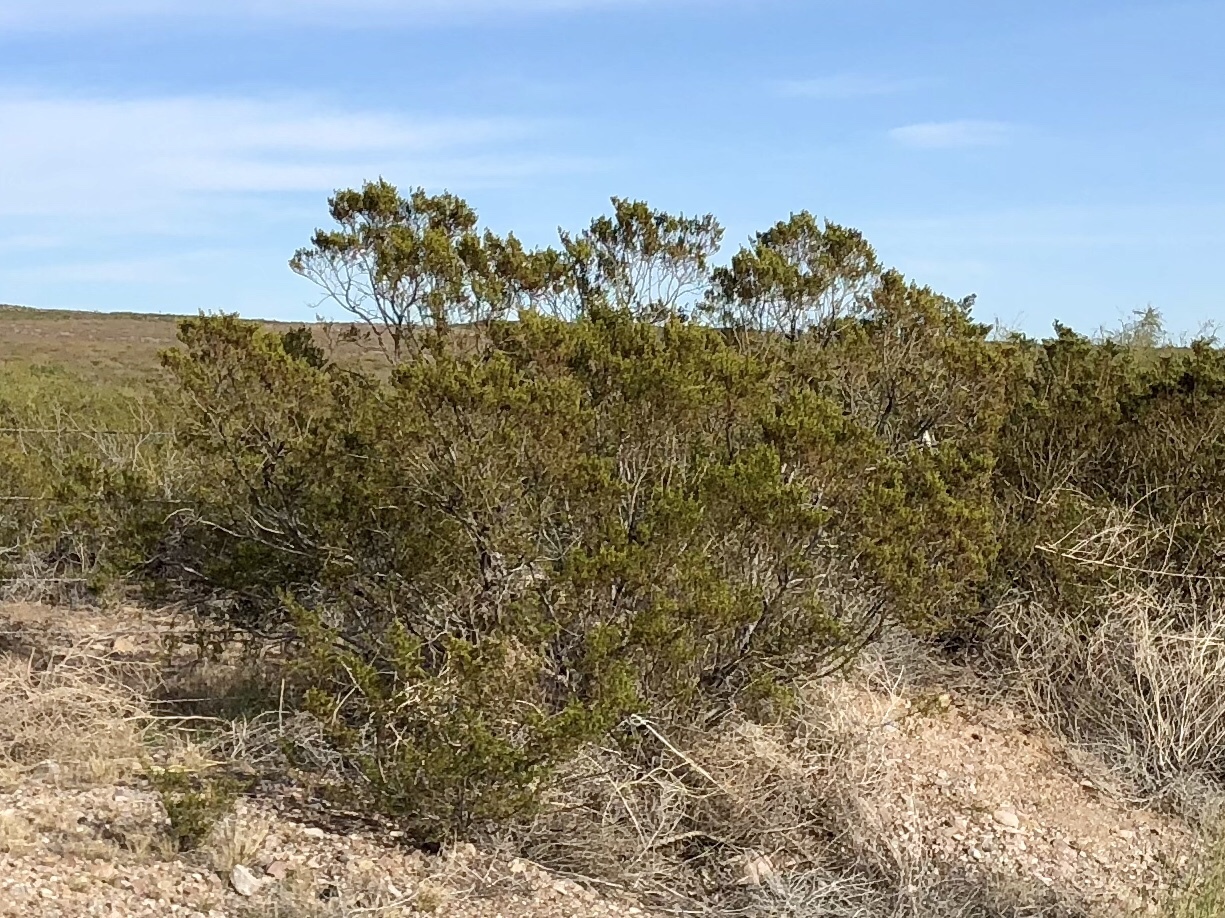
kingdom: Plantae
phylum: Tracheophyta
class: Magnoliopsida
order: Zygophyllales
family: Zygophyllaceae
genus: Larrea
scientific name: Larrea tridentata
